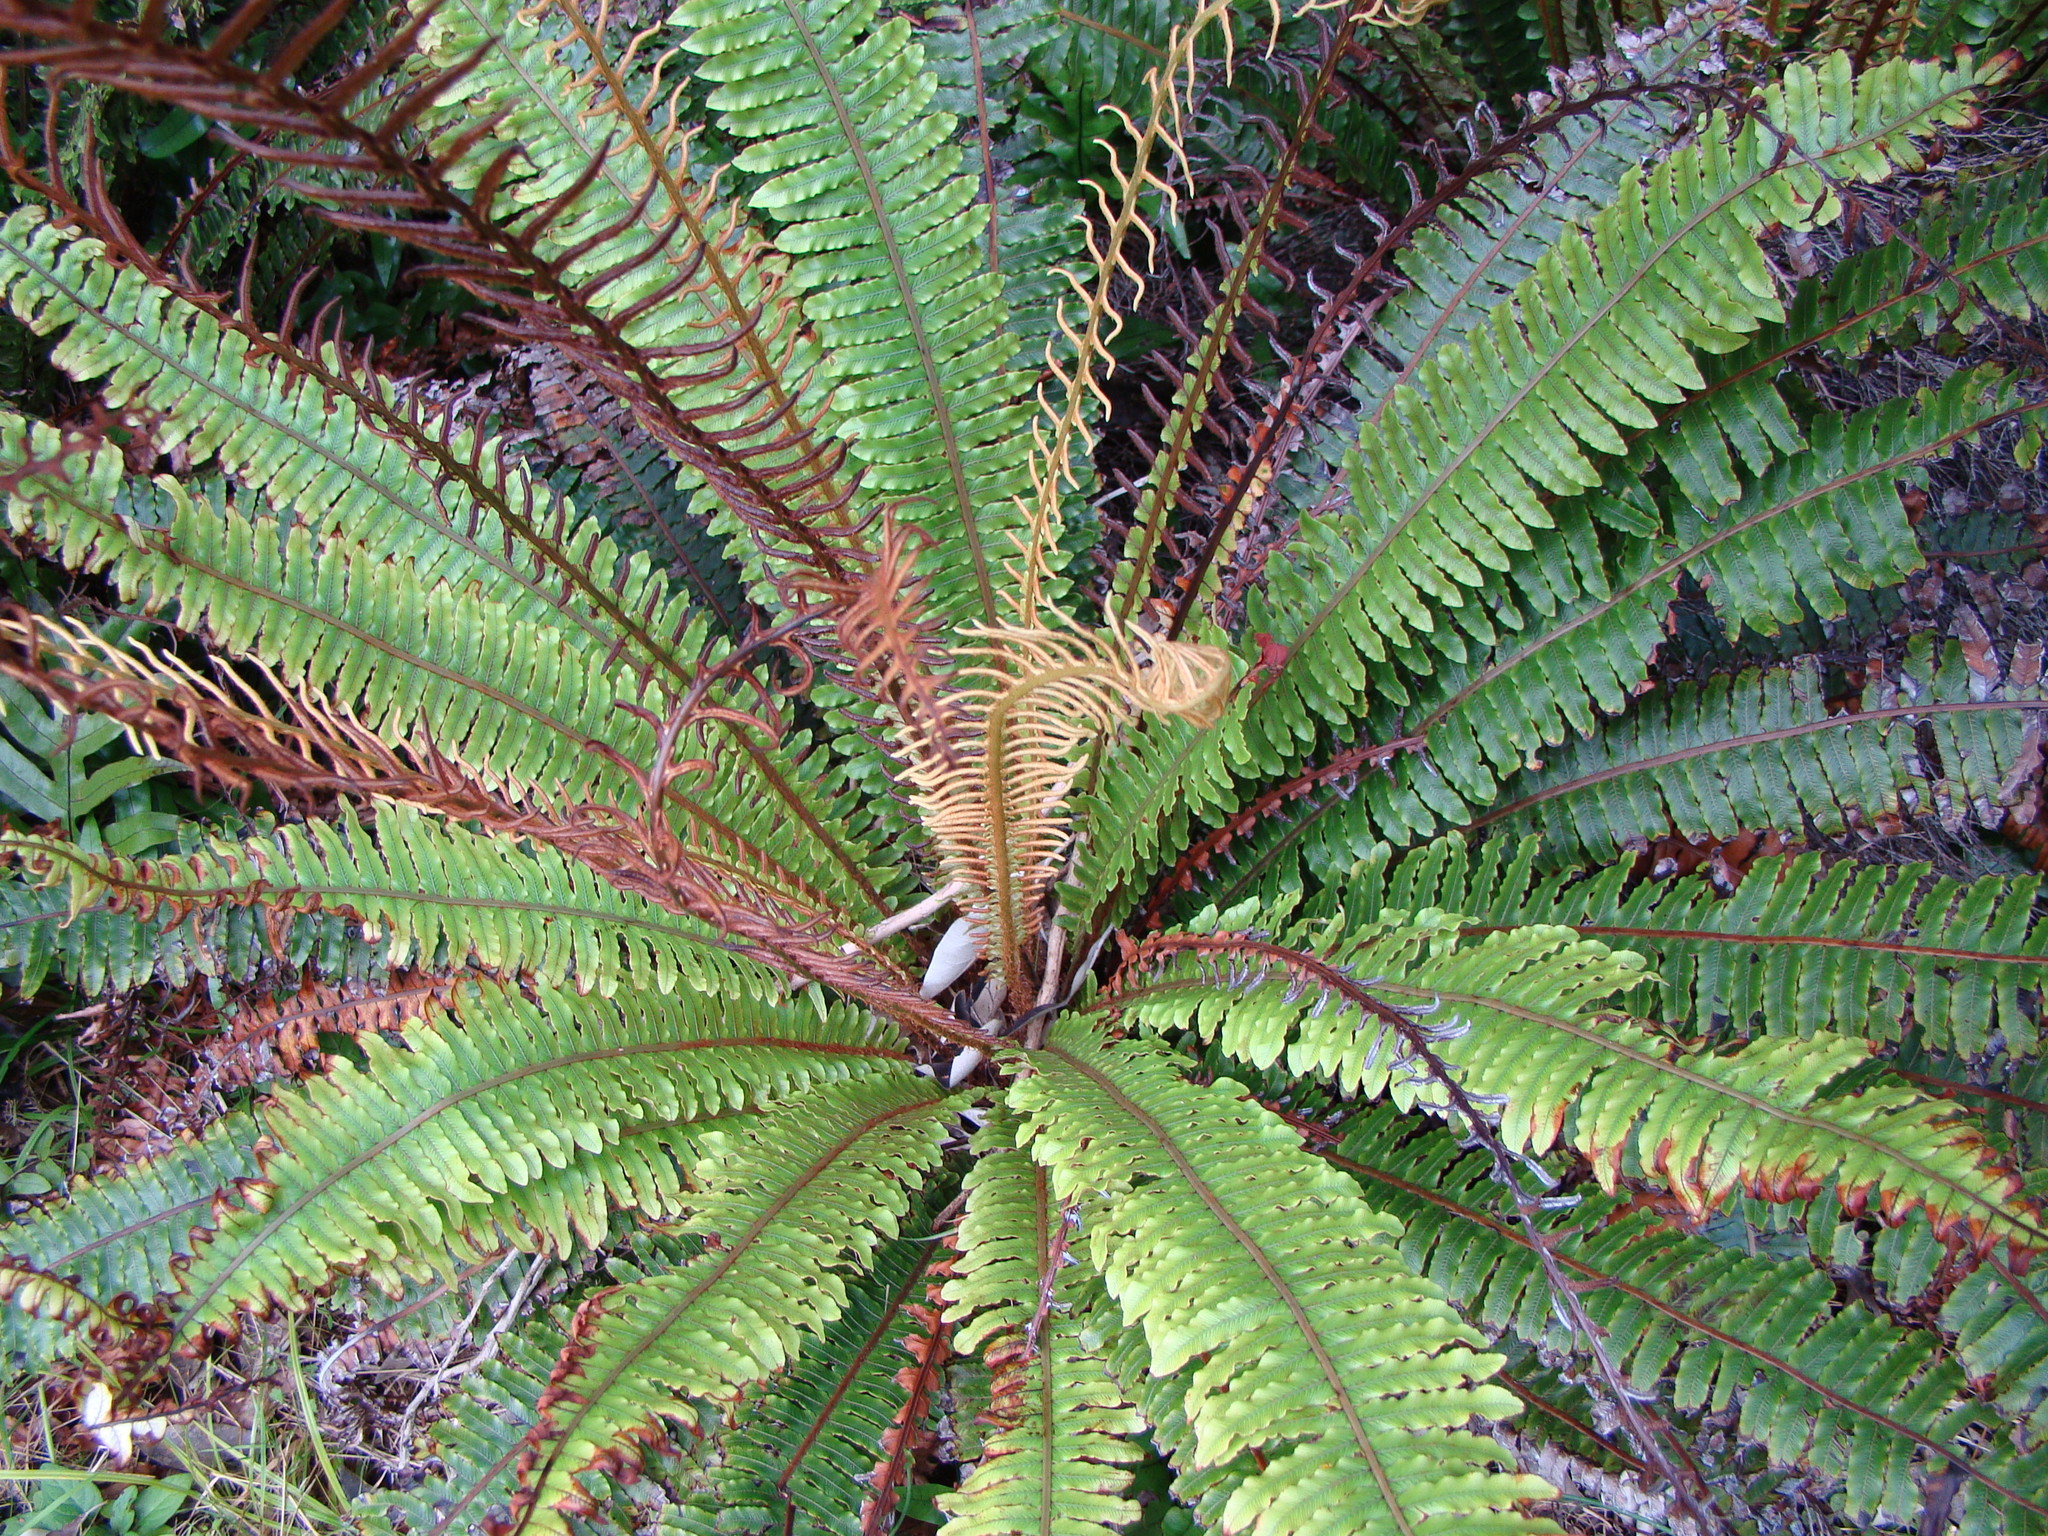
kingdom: Plantae
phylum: Tracheophyta
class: Polypodiopsida
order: Polypodiales
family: Blechnaceae
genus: Lomaria
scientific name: Lomaria discolor
